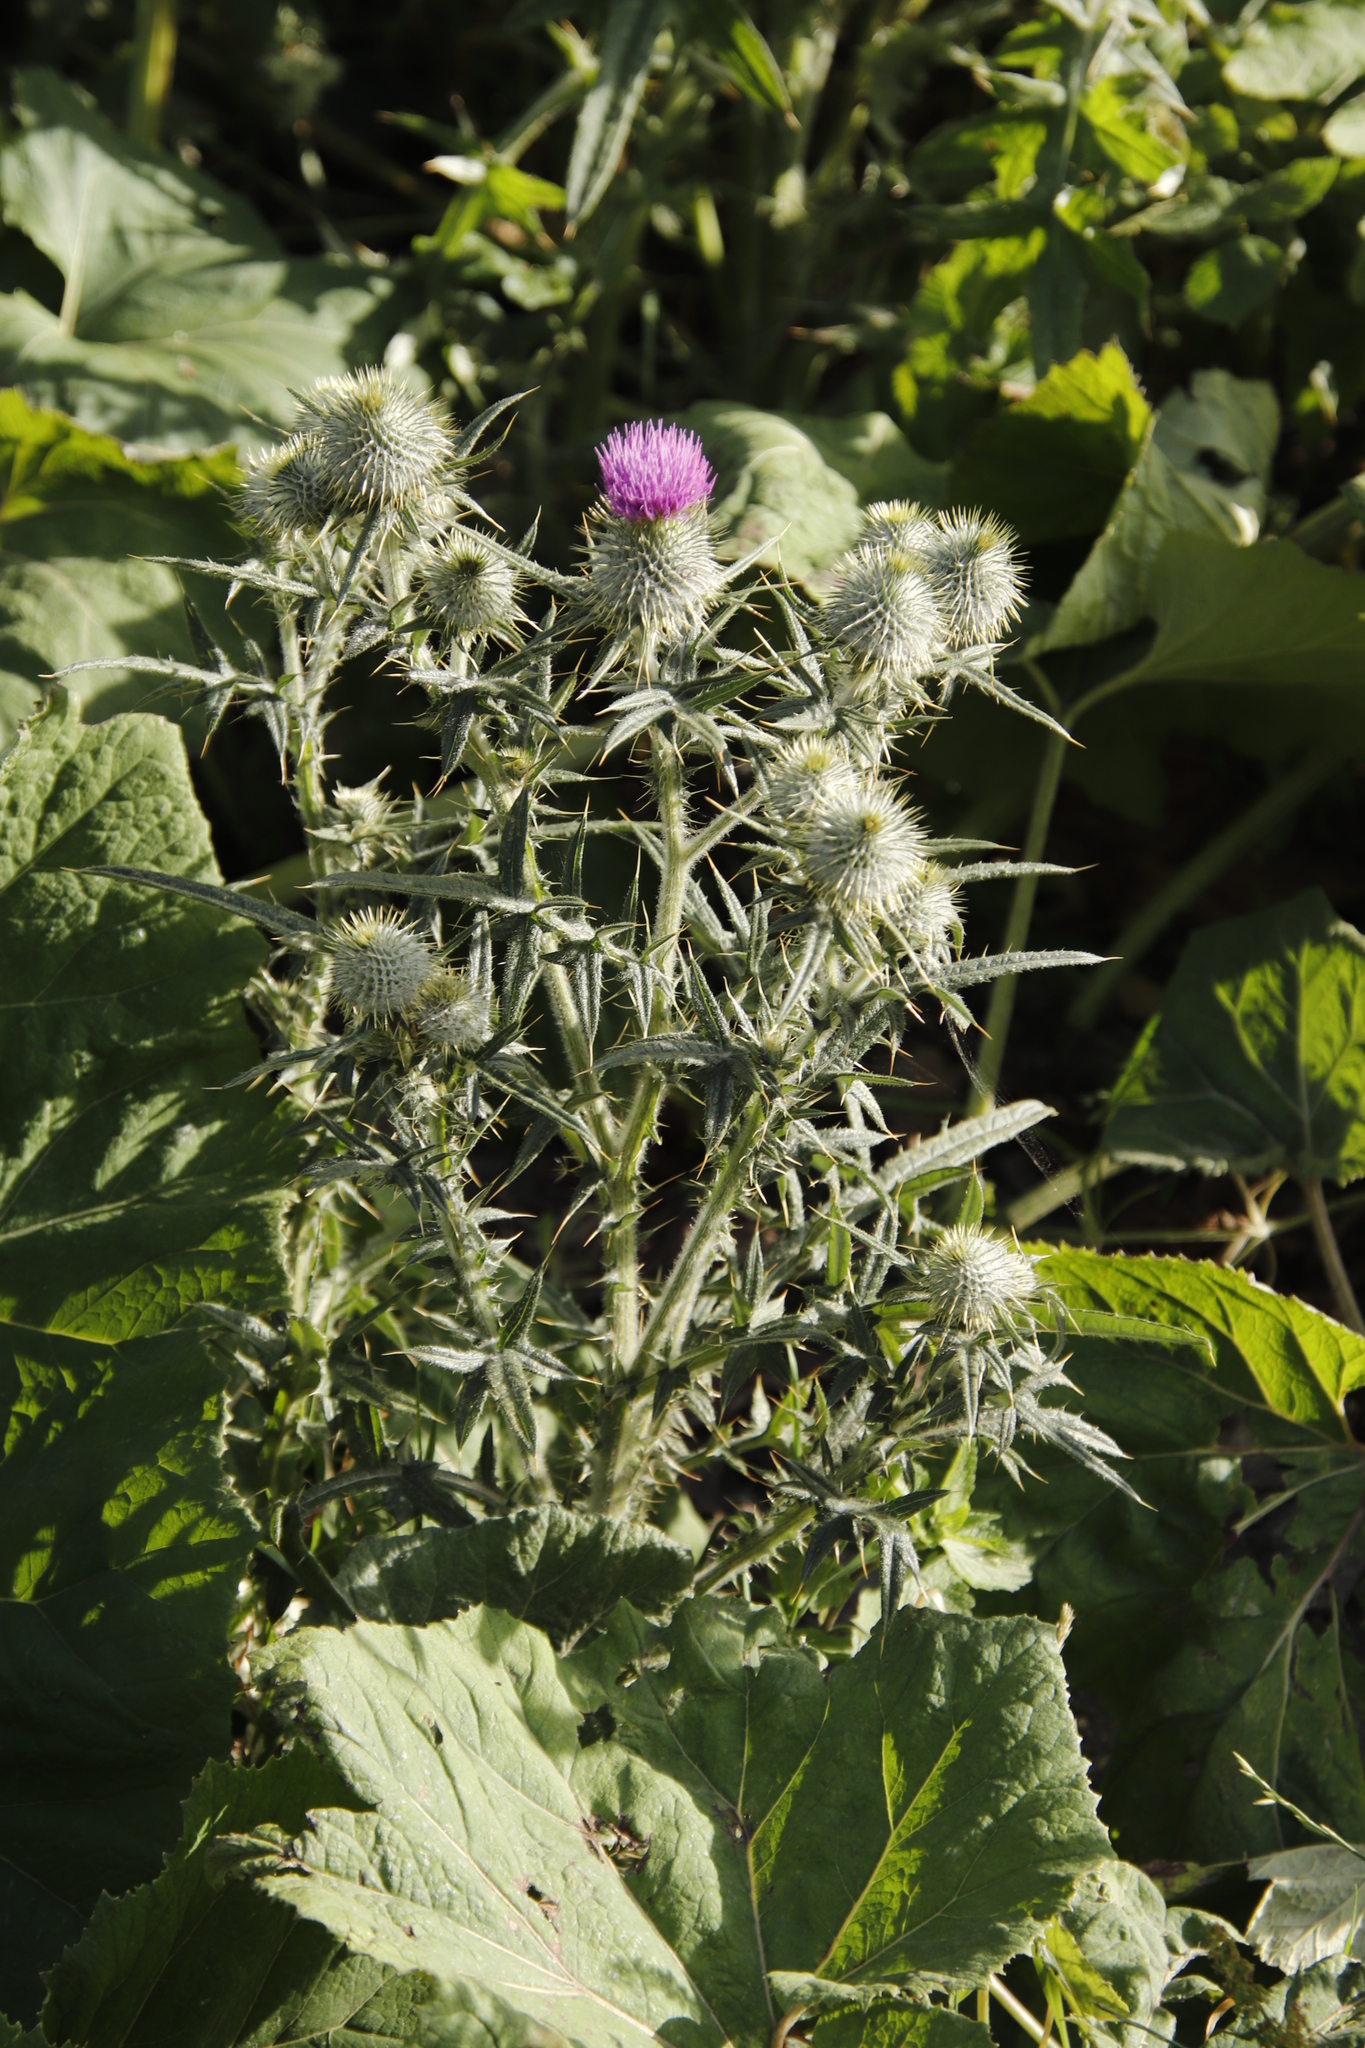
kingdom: Plantae
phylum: Tracheophyta
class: Magnoliopsida
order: Asterales
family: Asteraceae
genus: Cirsium
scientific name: Cirsium vulgare
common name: Bull thistle
